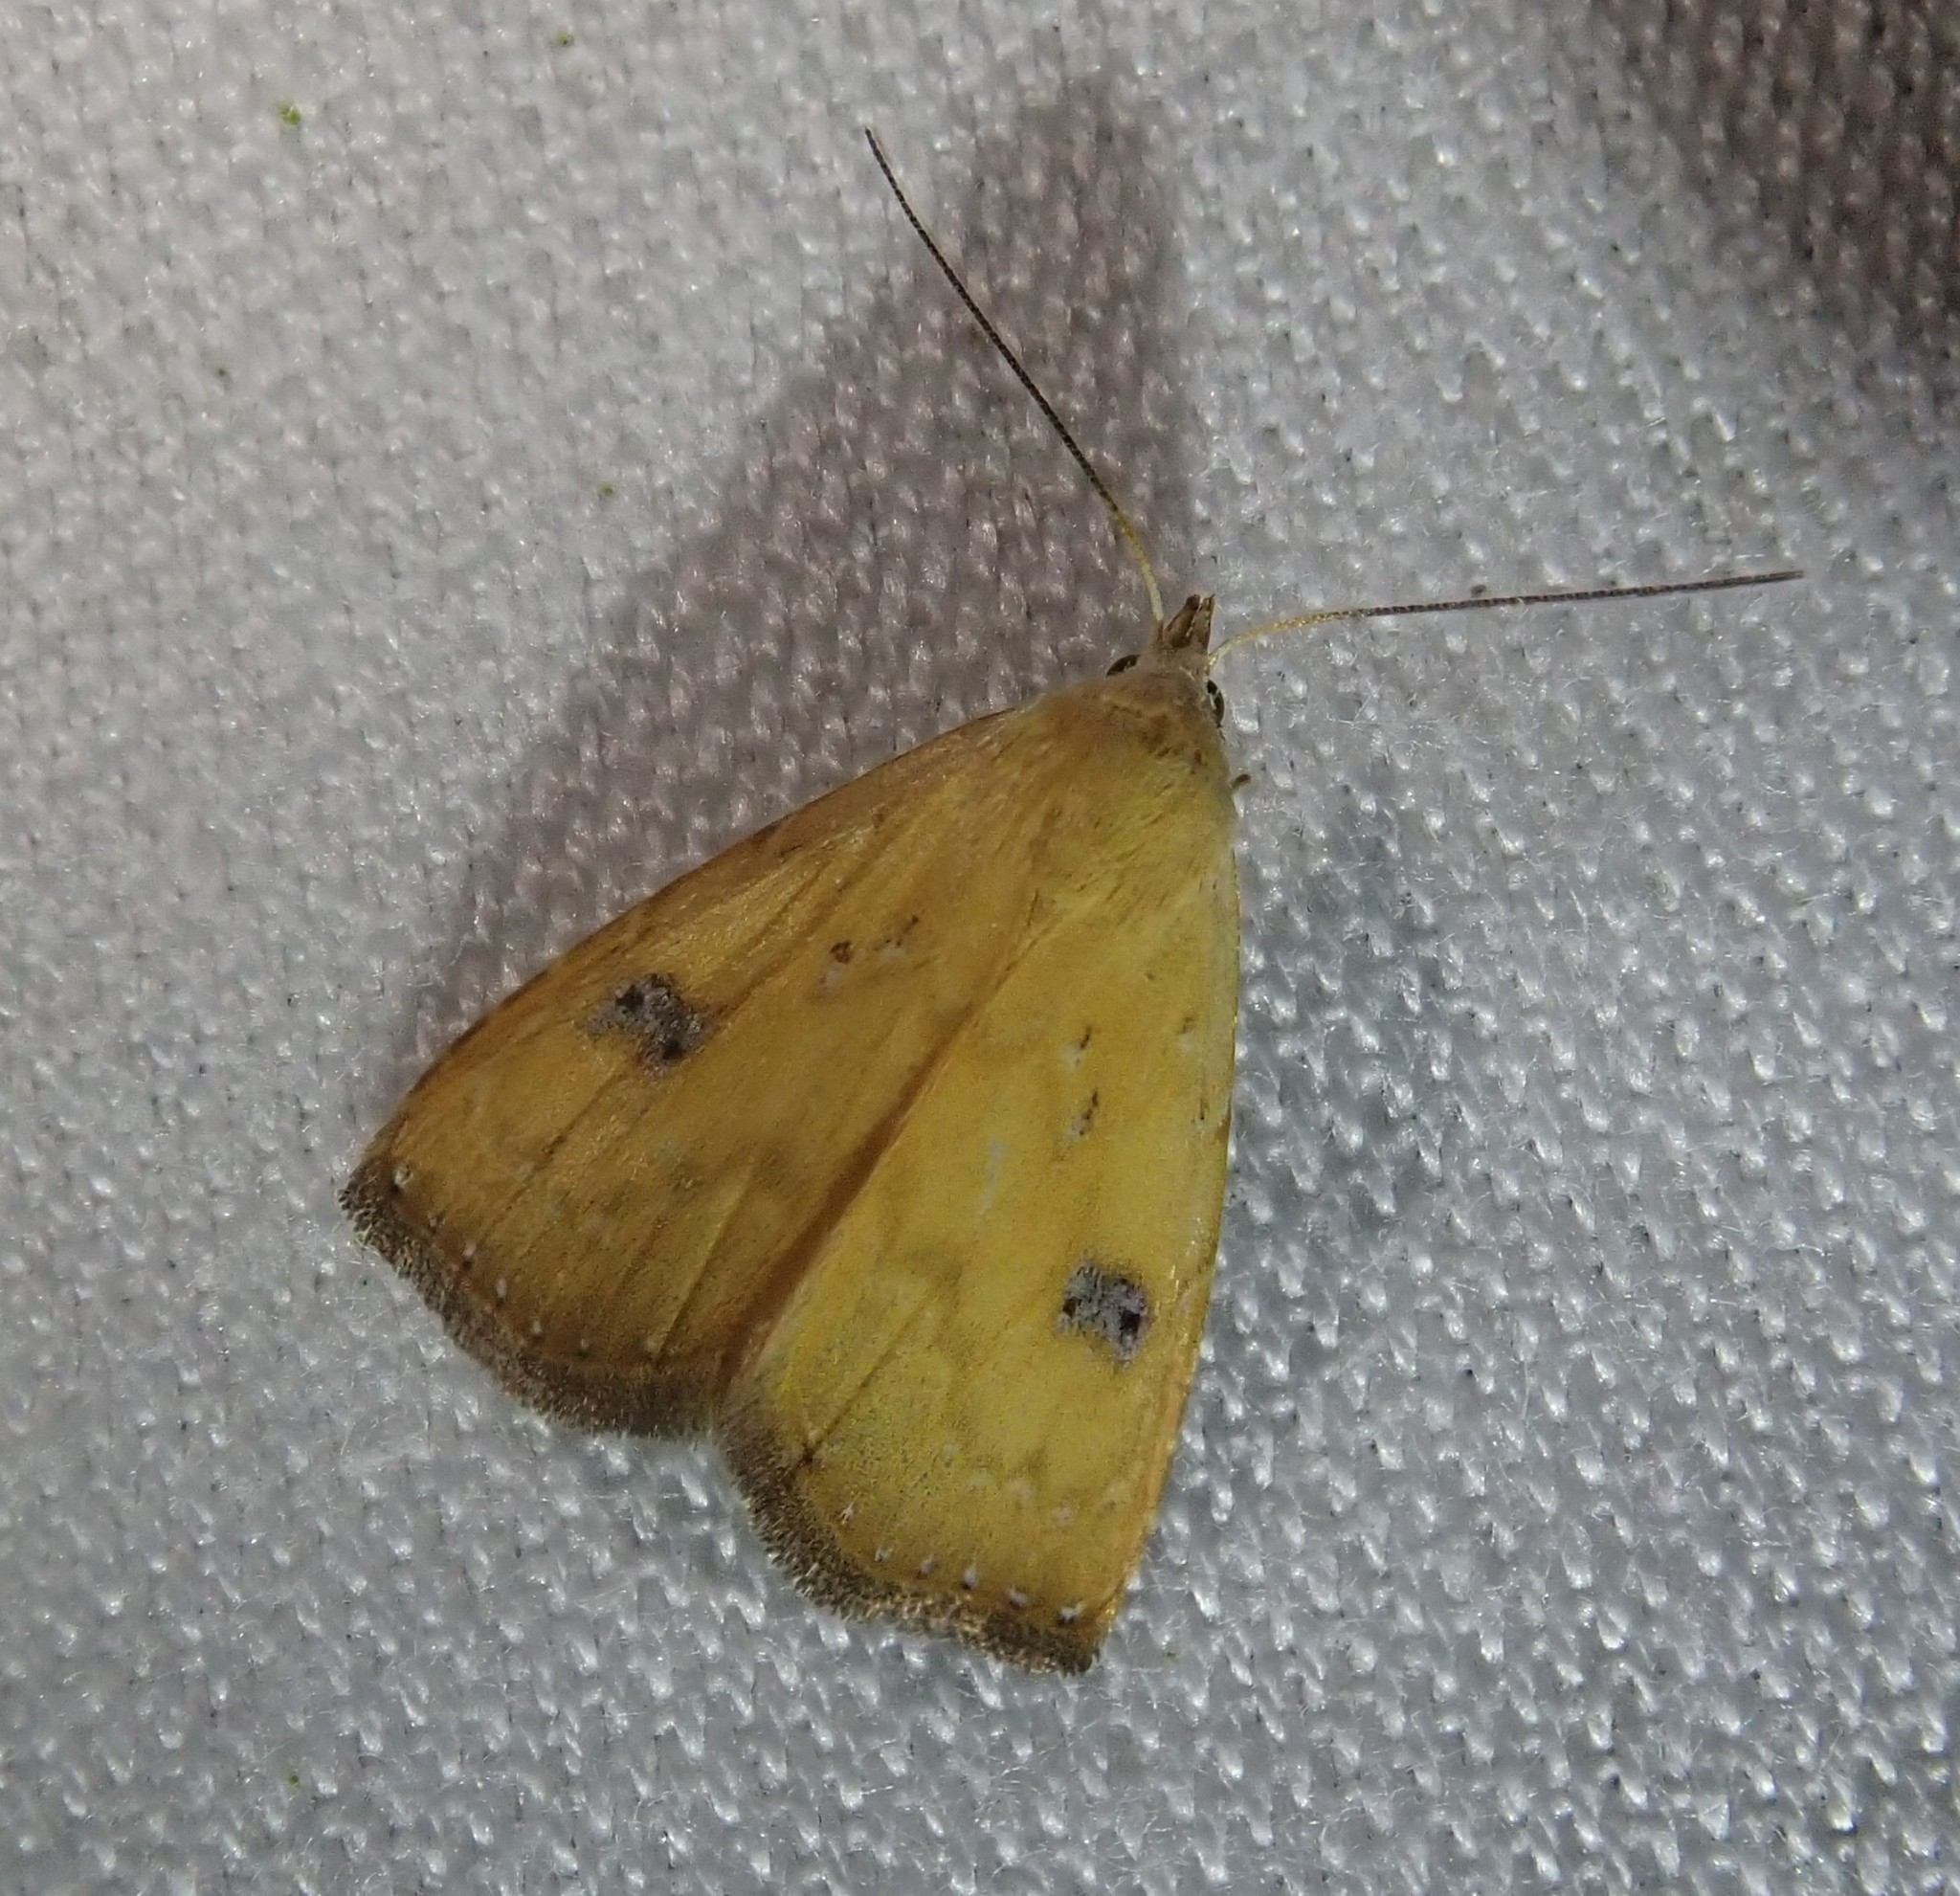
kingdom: Animalia
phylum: Arthropoda
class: Insecta
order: Lepidoptera
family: Erebidae
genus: Rivula
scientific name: Rivula sericealis
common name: Straw dot
